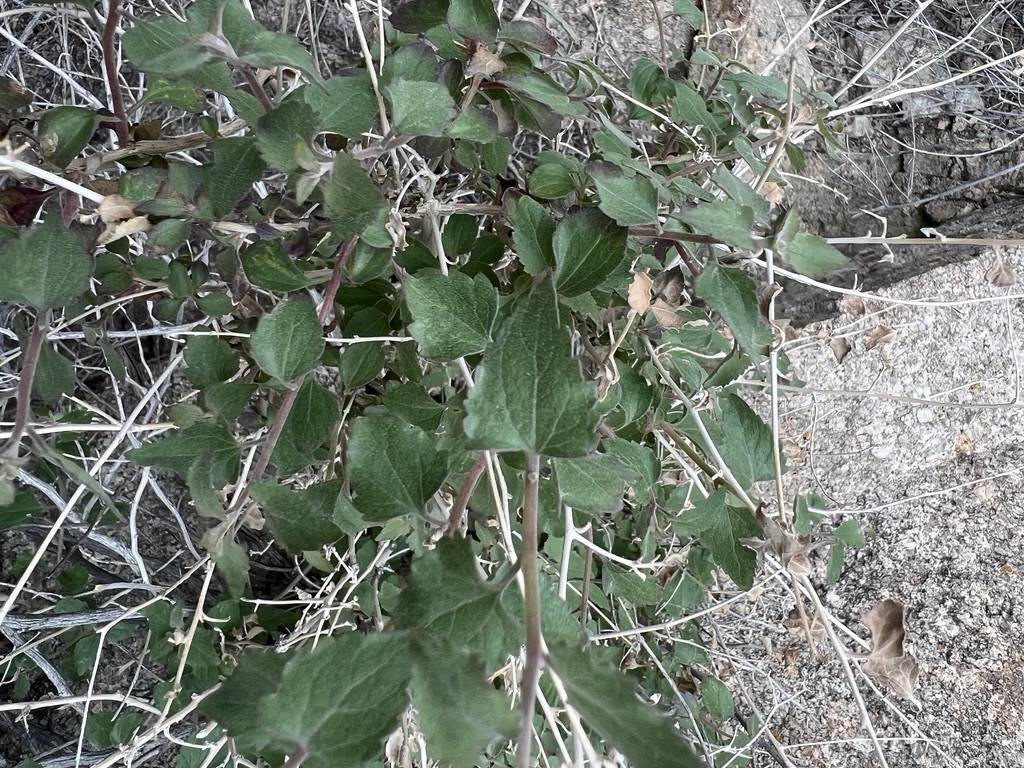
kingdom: Plantae
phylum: Tracheophyta
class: Magnoliopsida
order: Asterales
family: Asteraceae
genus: Brickellia
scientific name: Brickellia californica
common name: California brickellbush
